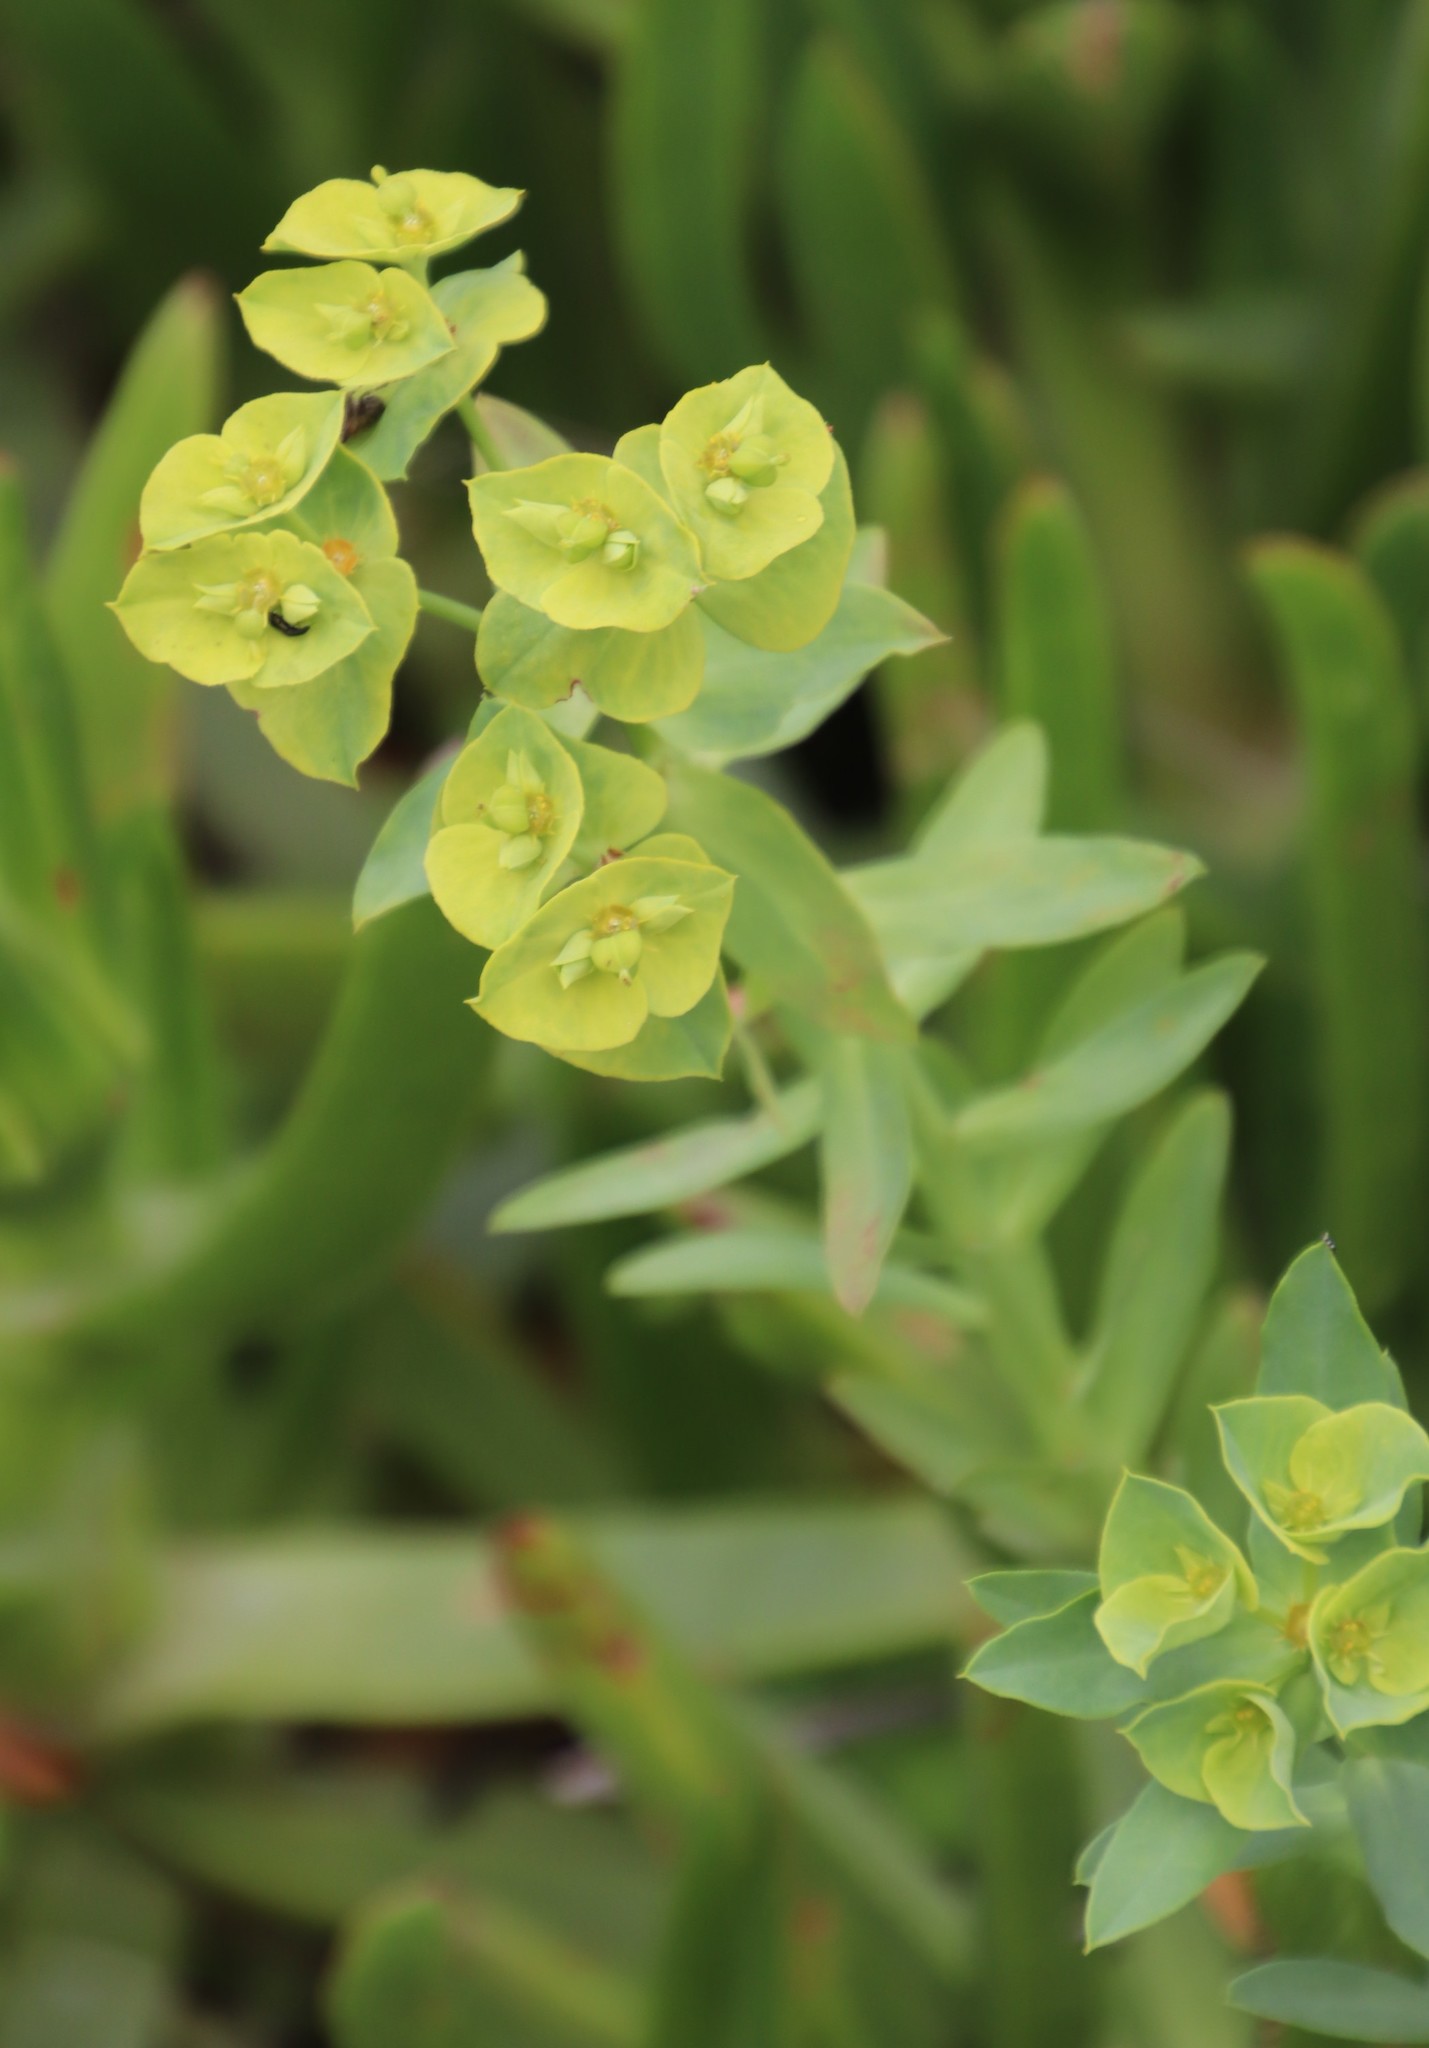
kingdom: Plantae
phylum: Tracheophyta
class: Magnoliopsida
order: Malpighiales
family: Euphorbiaceae
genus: Euphorbia
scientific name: Euphorbia terracina
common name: Geraldton carnation weed
